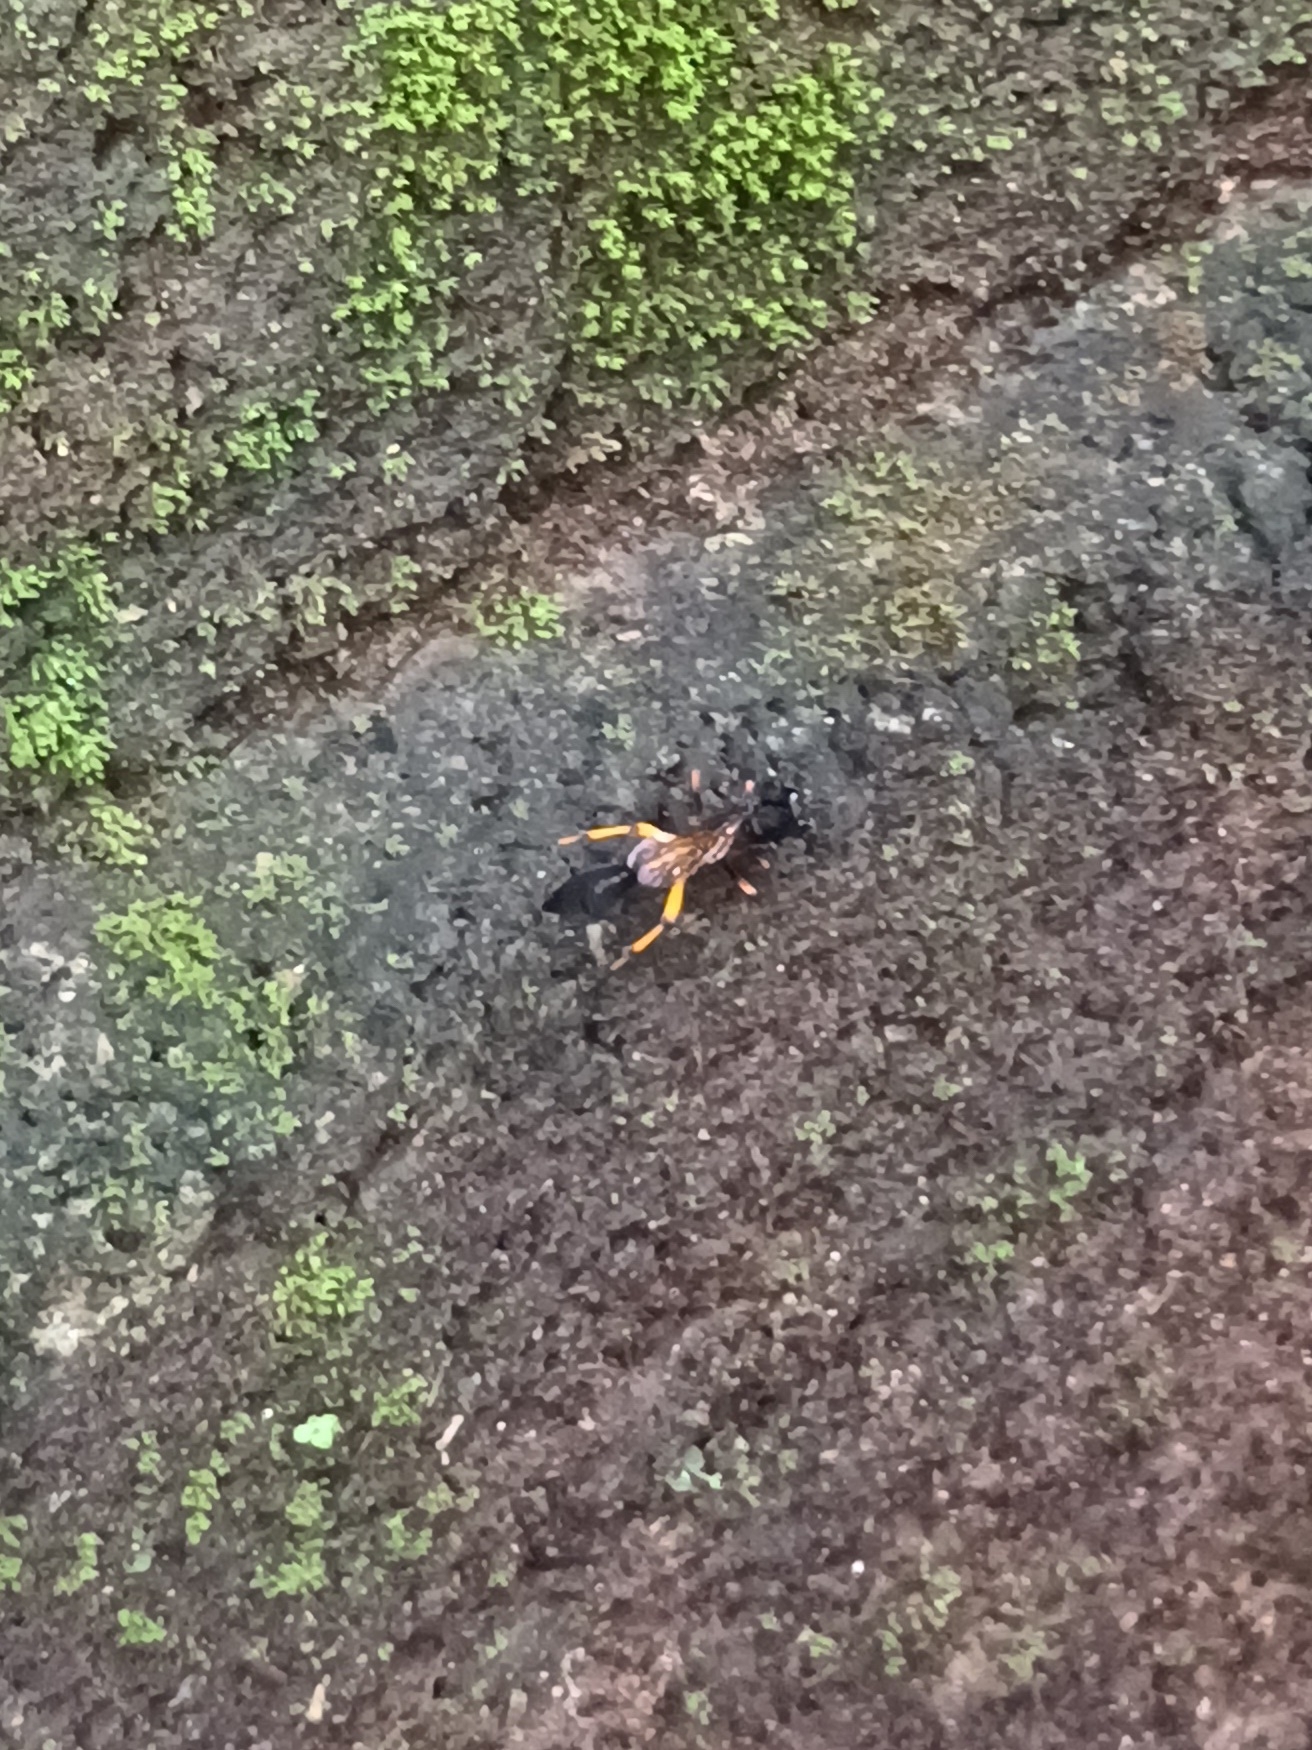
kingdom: Animalia
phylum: Arthropoda
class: Insecta
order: Hymenoptera
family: Sphecidae
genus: Sceliphron
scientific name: Sceliphron madraspatanum
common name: Mud dauber
